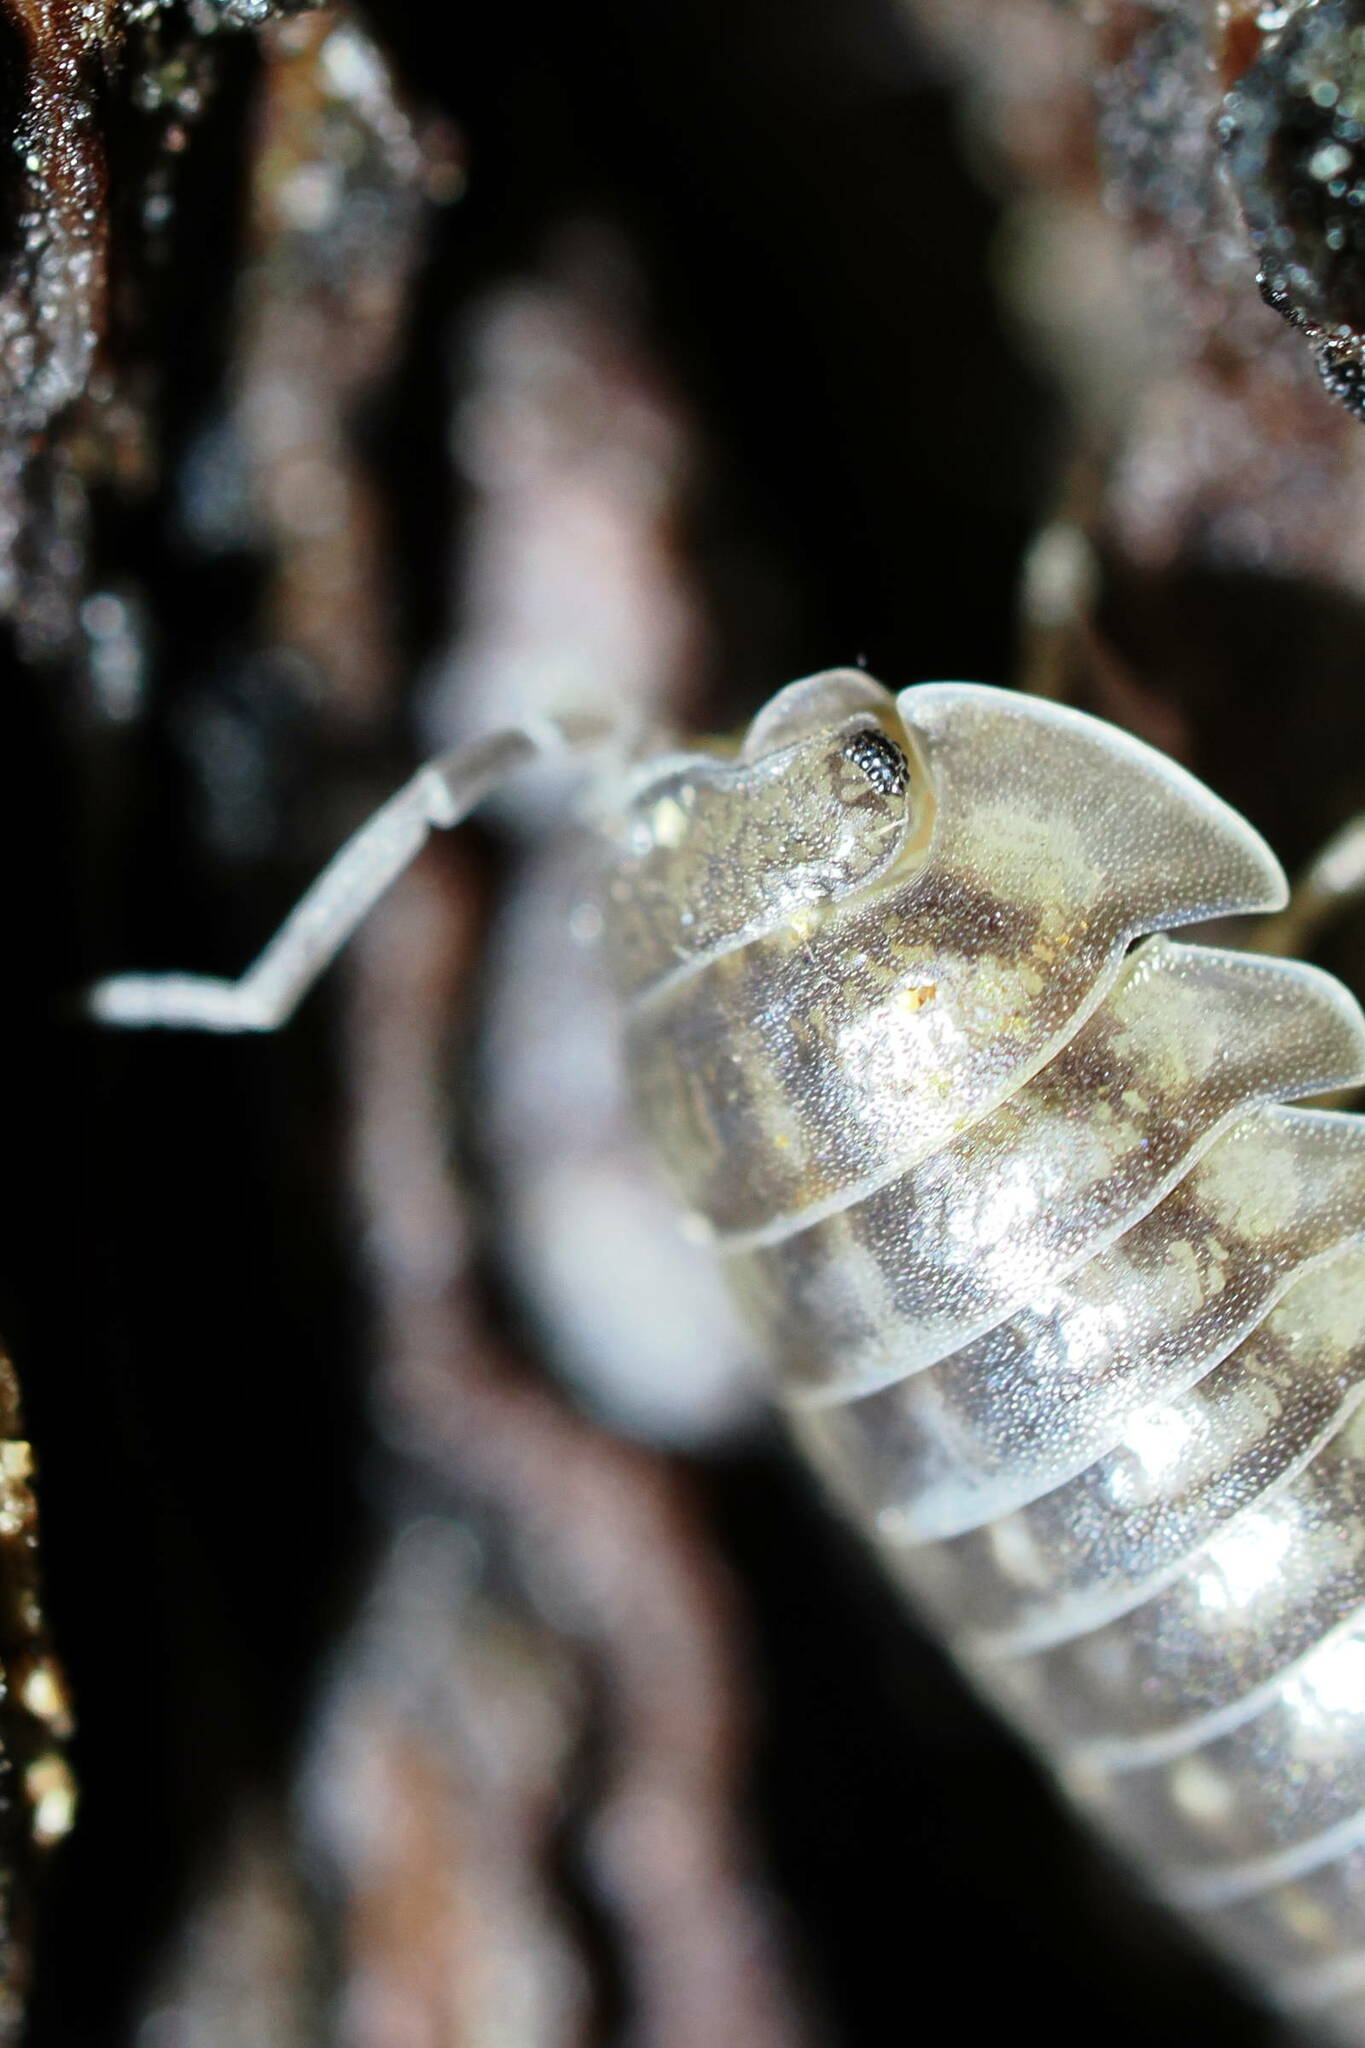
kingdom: Animalia
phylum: Arthropoda
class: Malacostraca
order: Isopoda
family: Armadillidiidae
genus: Armadillidium
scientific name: Armadillidium nasatum
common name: Isopod
